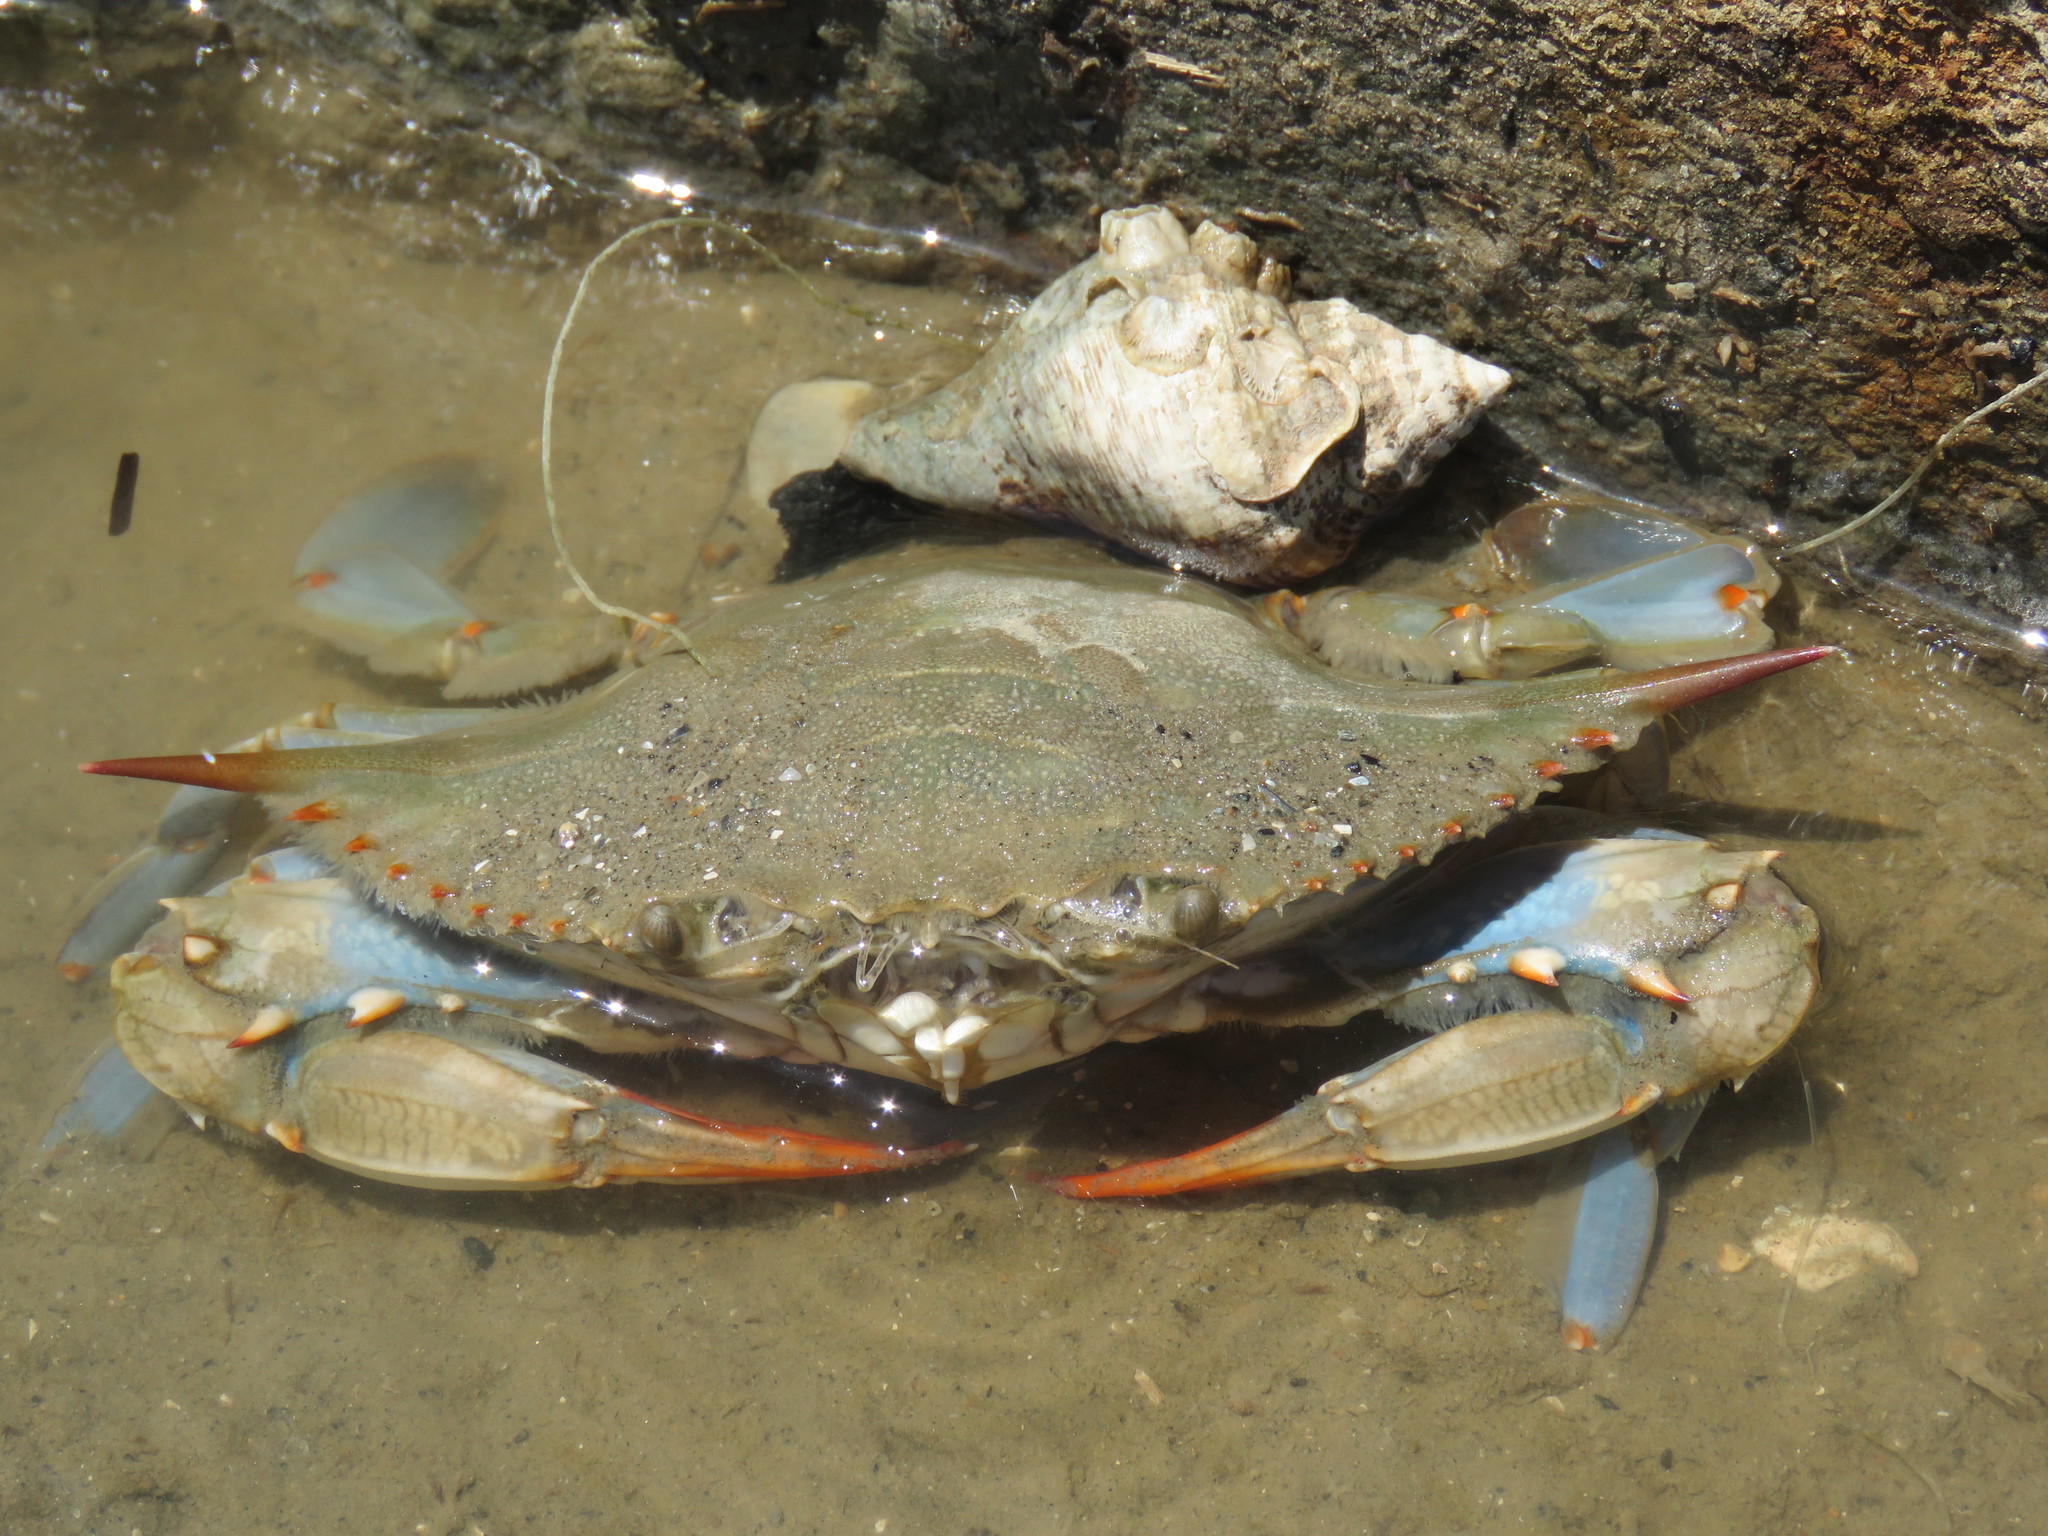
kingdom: Animalia
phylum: Arthropoda
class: Malacostraca
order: Decapoda
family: Portunidae
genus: Callinectes
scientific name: Callinectes sapidus
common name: Blue crab
